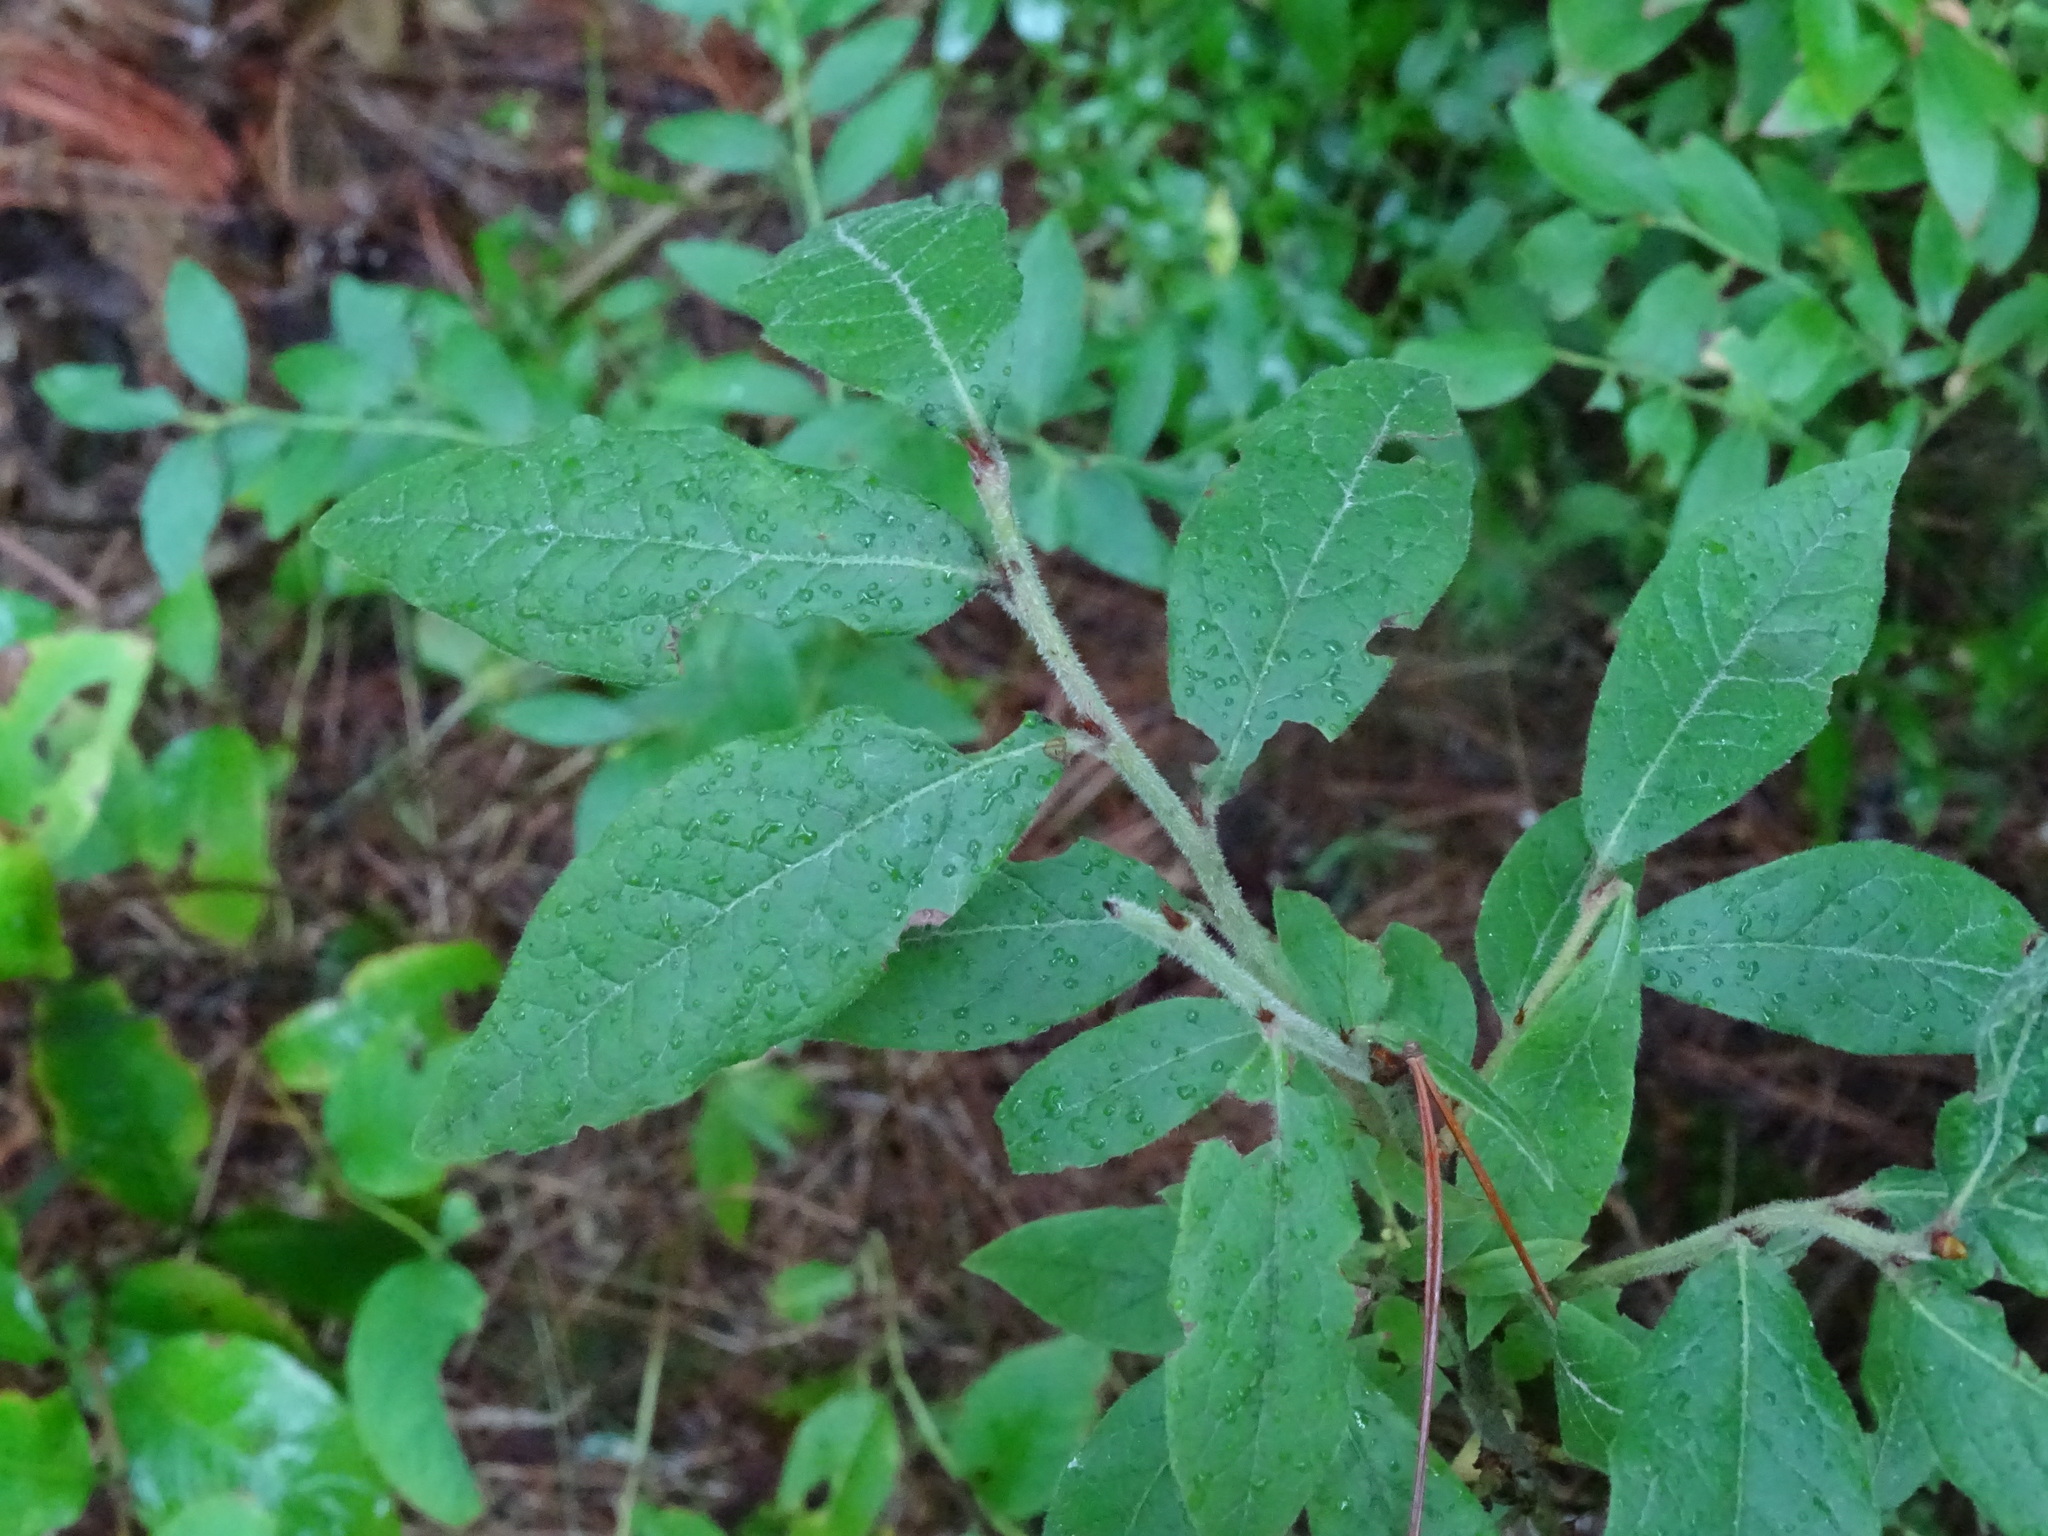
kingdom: Plantae
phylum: Tracheophyta
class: Magnoliopsida
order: Ericales
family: Ericaceae
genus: Vaccinium
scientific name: Vaccinium myrtilloides
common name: Canada blueberry
